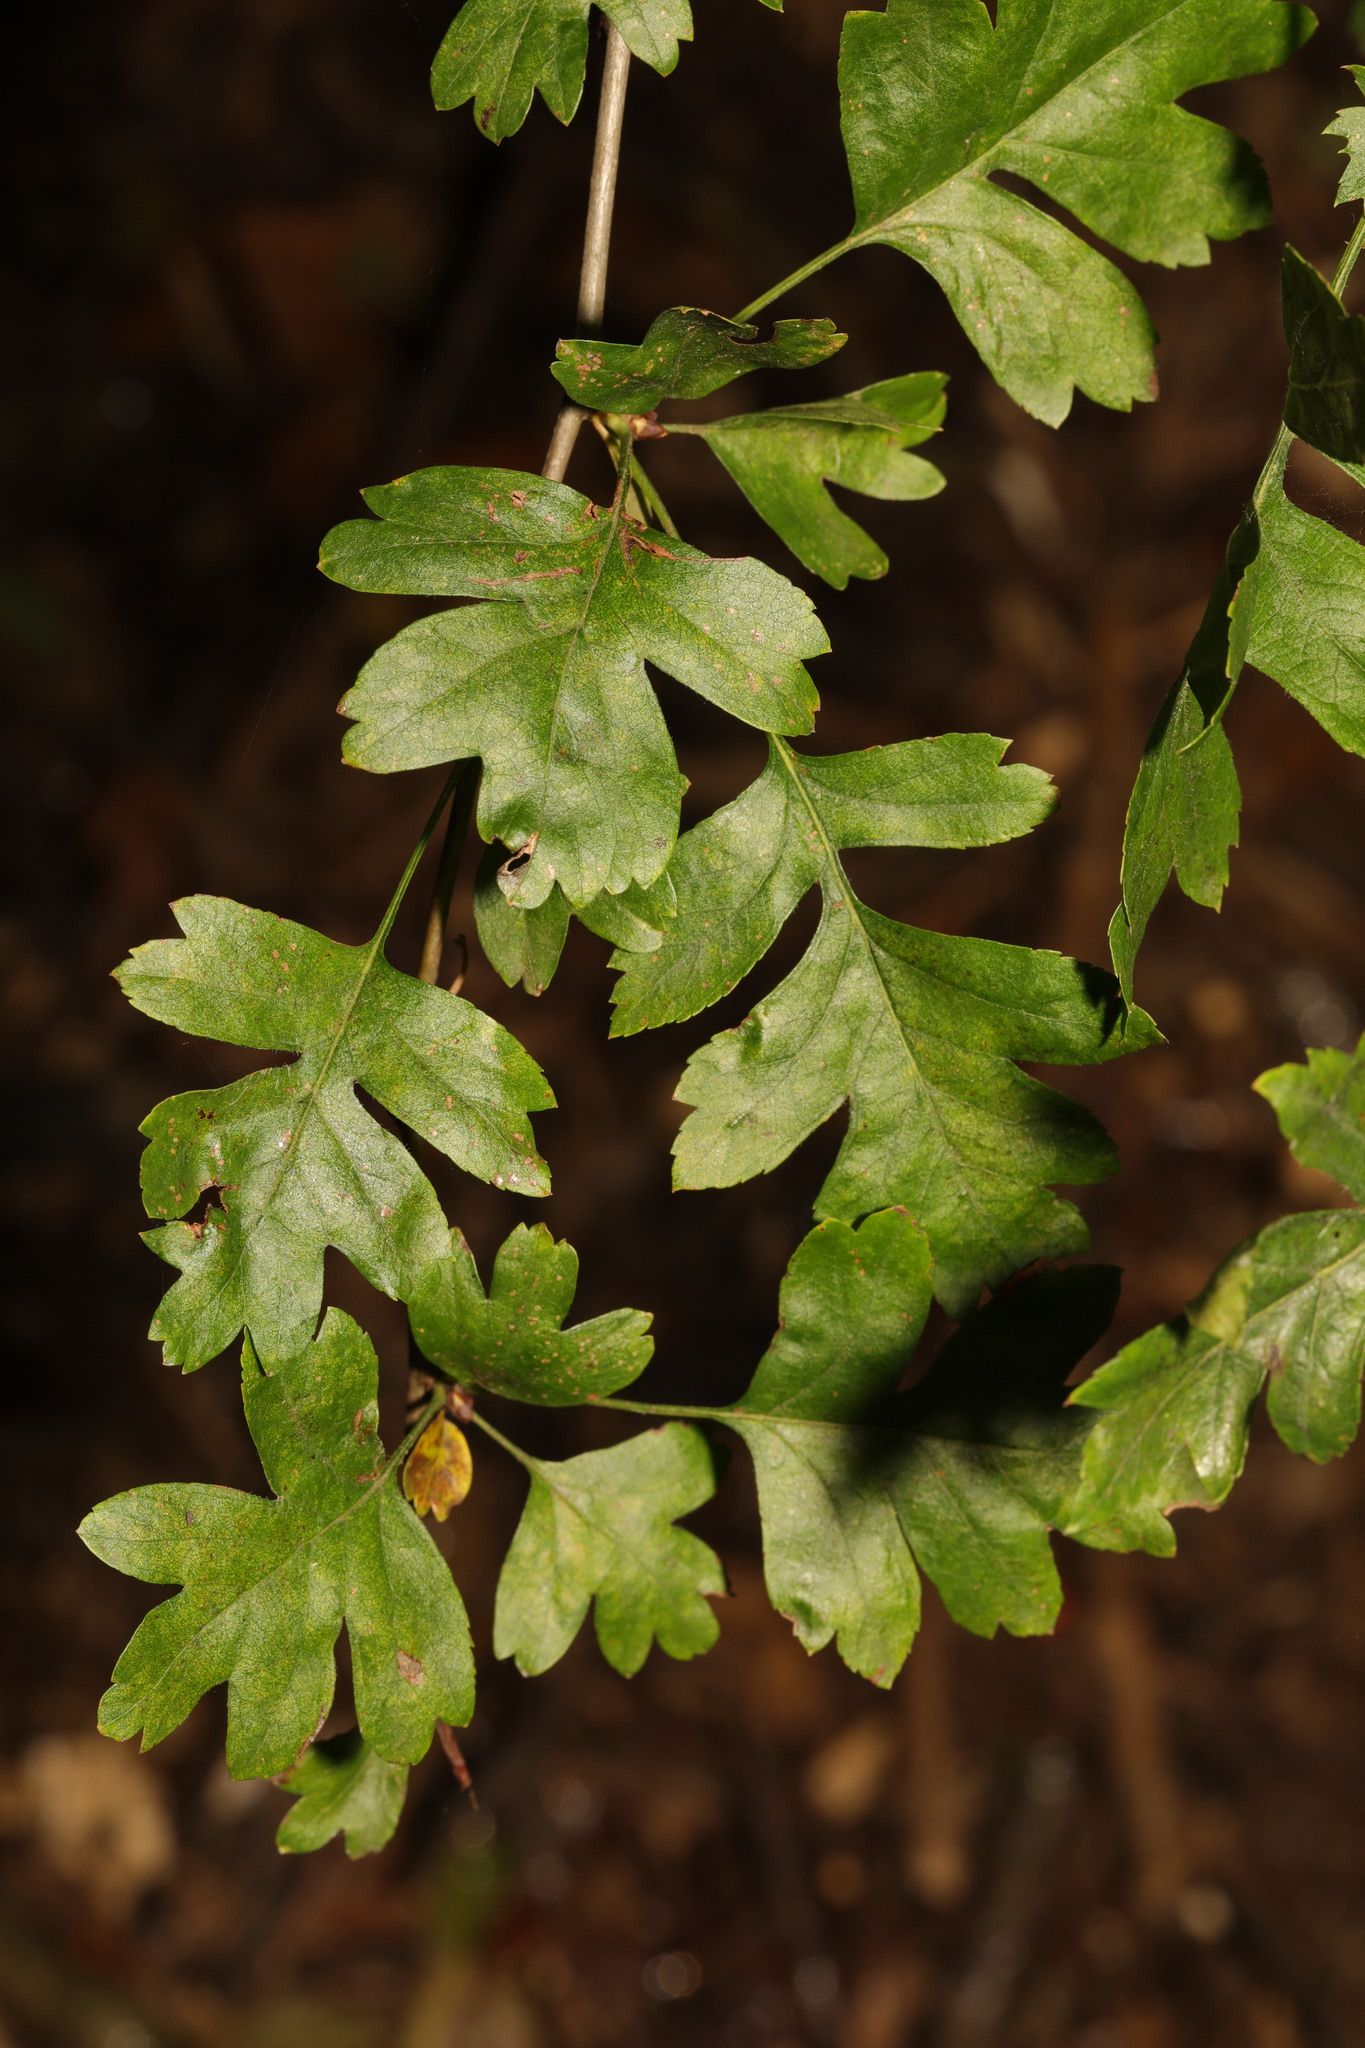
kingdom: Plantae
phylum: Tracheophyta
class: Magnoliopsida
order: Rosales
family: Rosaceae
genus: Crataegus
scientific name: Crataegus monogyna
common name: Hawthorn
